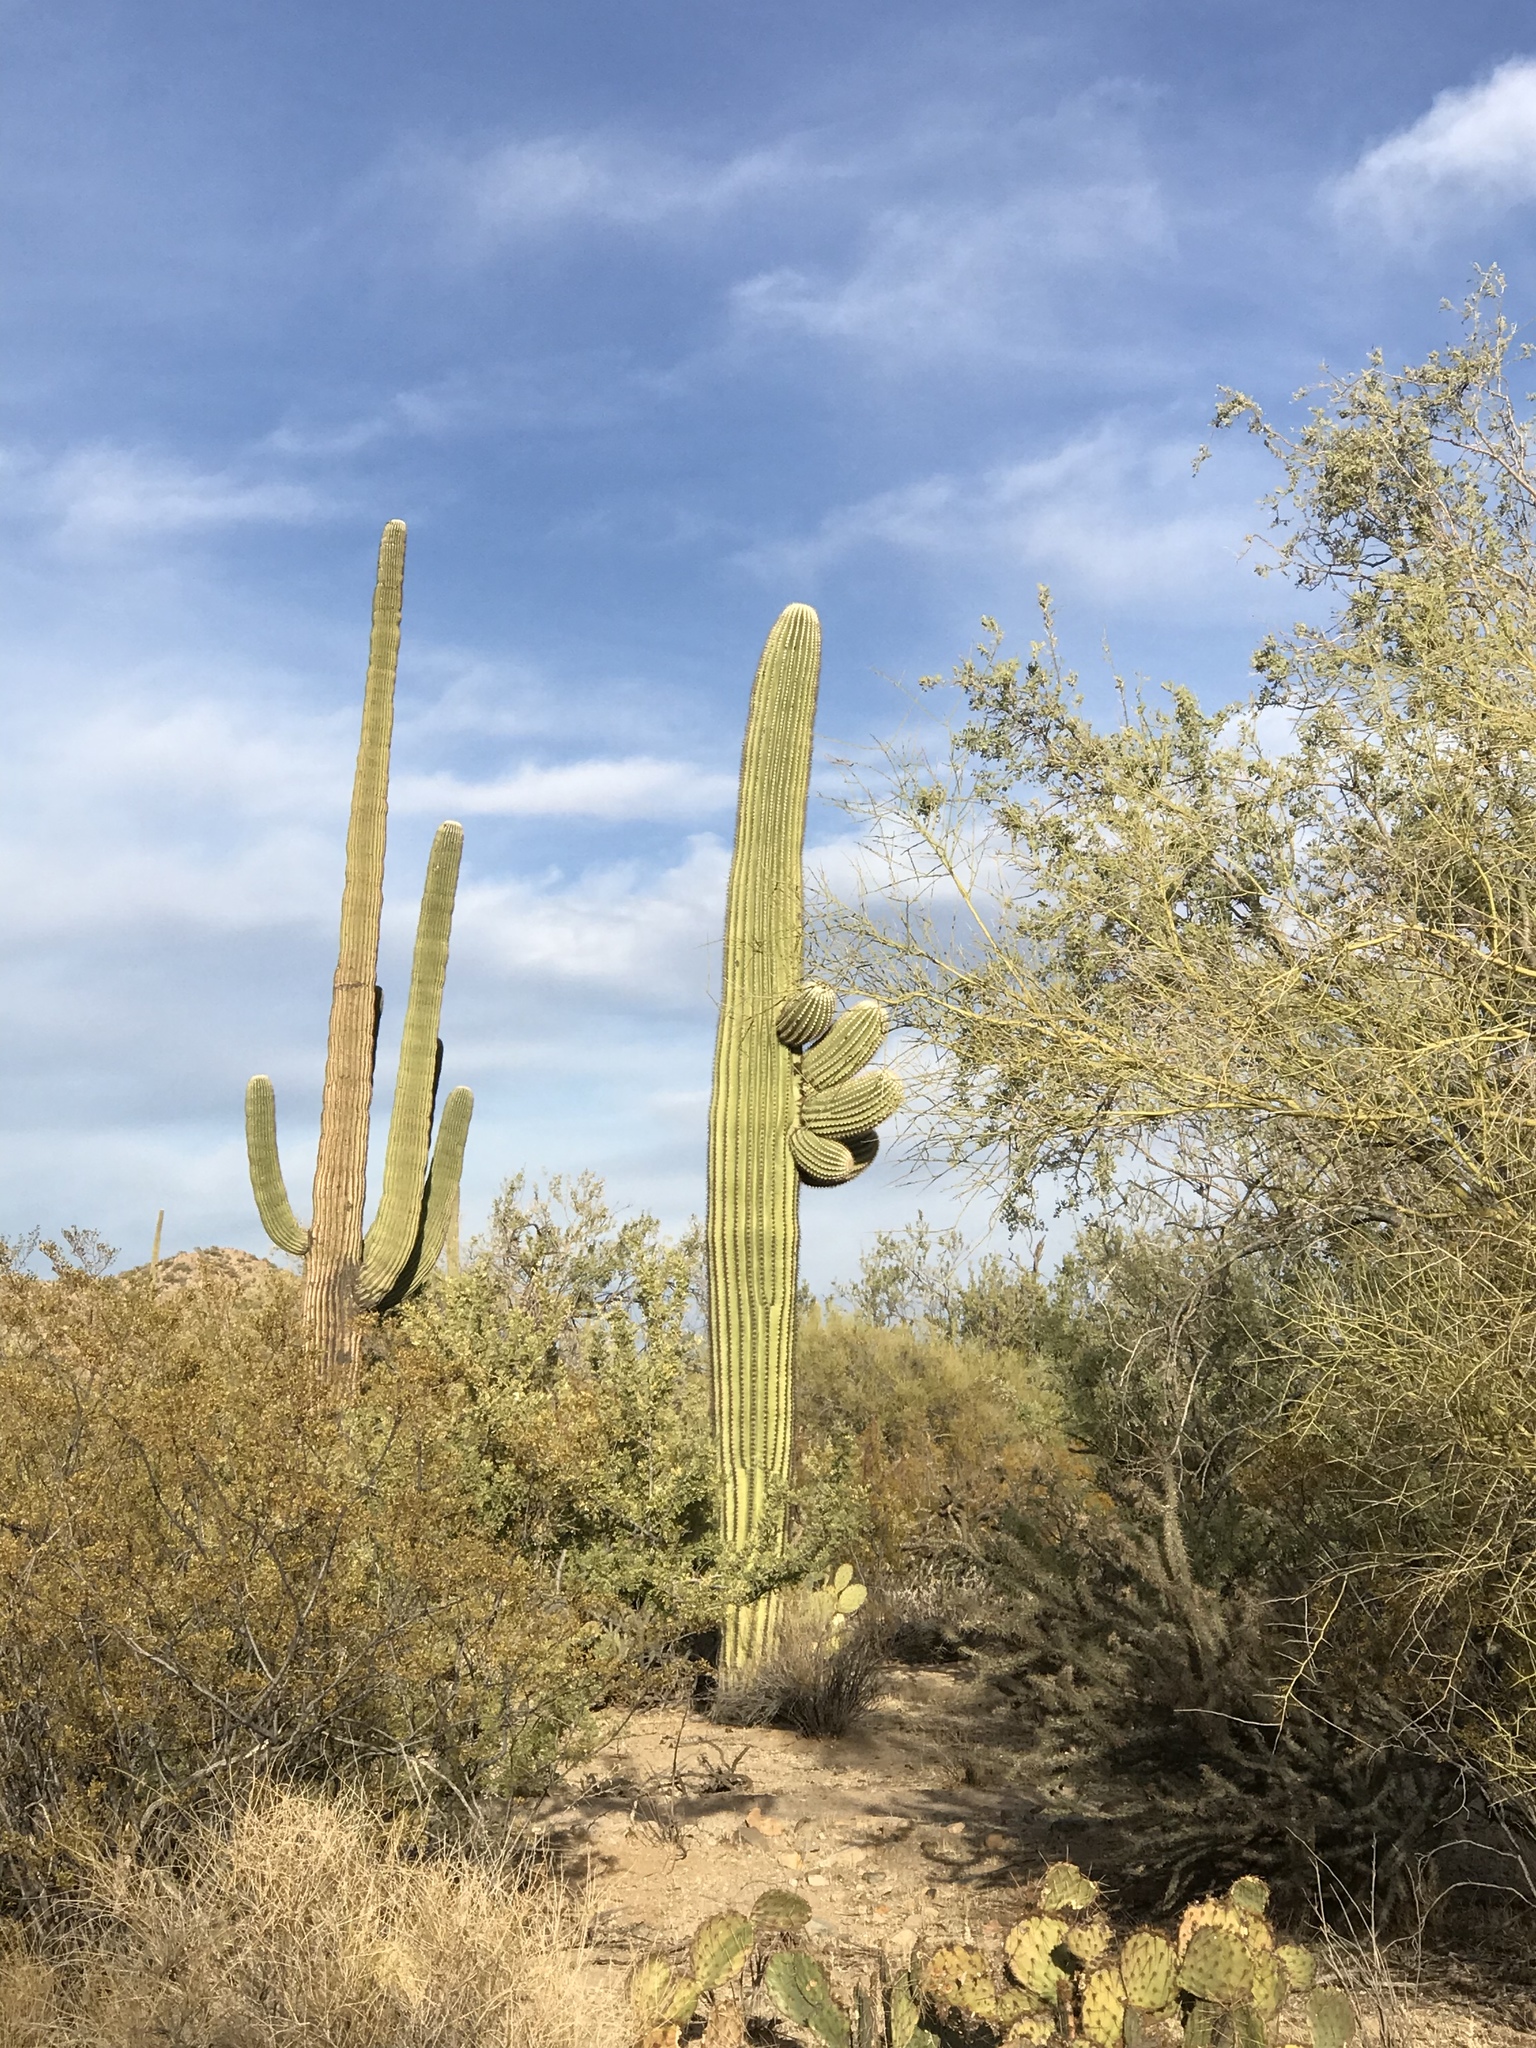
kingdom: Plantae
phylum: Tracheophyta
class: Magnoliopsida
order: Caryophyllales
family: Cactaceae
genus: Carnegiea
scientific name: Carnegiea gigantea
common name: Saguaro
